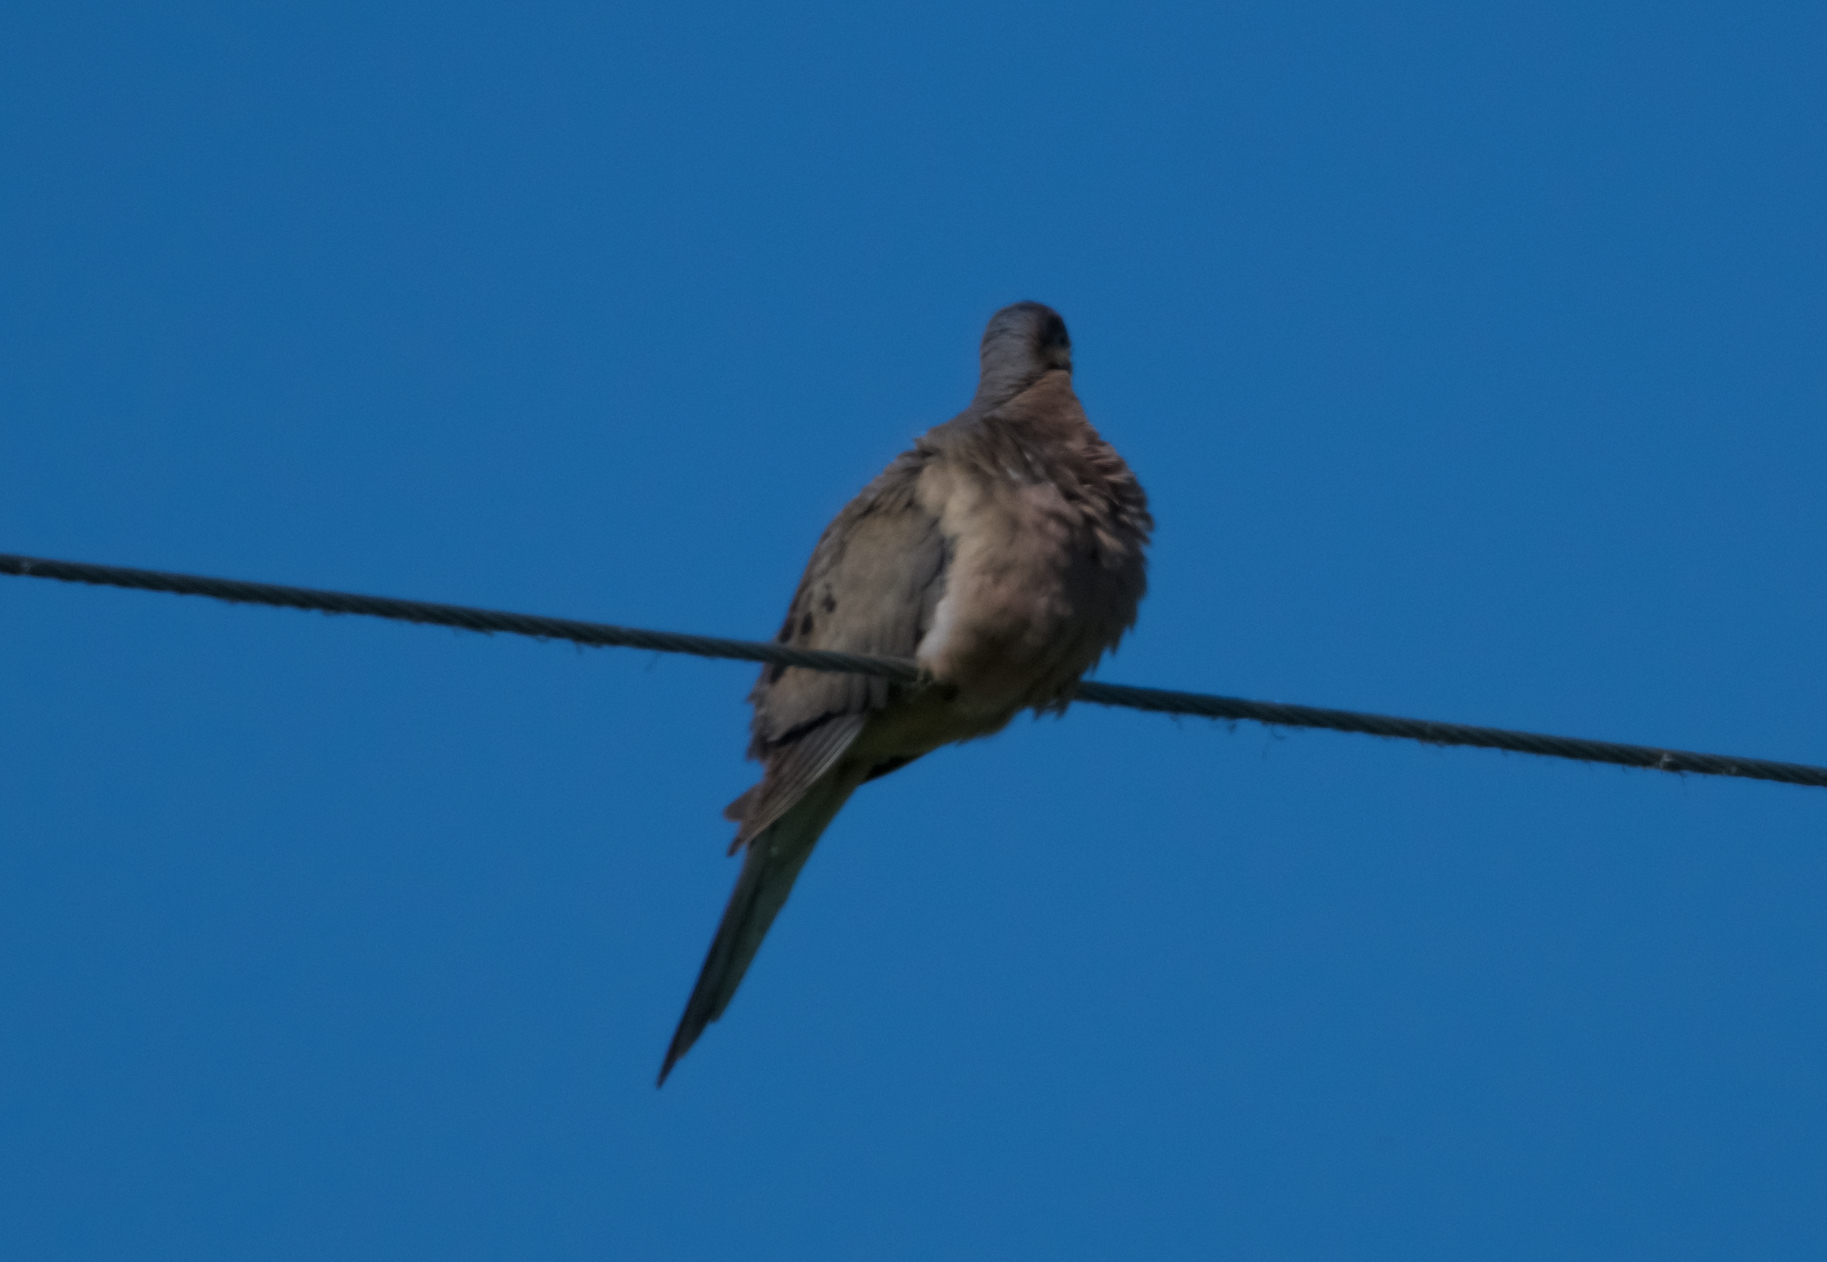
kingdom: Animalia
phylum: Chordata
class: Aves
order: Columbiformes
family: Columbidae
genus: Zenaida
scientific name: Zenaida macroura
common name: Mourning dove
